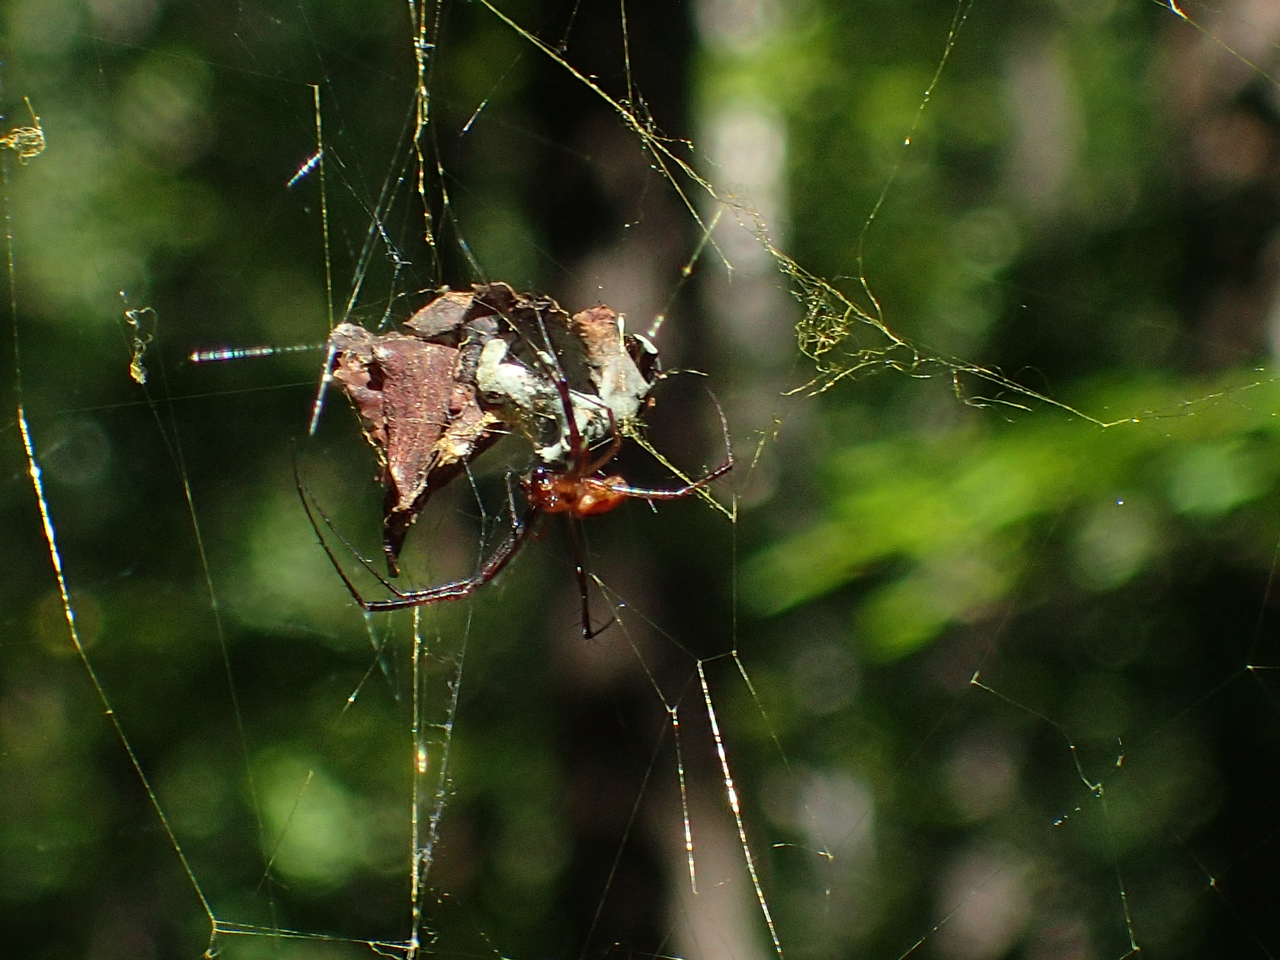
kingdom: Animalia
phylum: Arthropoda
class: Arachnida
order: Araneae
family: Araneidae
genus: Trichonephila
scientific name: Trichonephila clavipes
